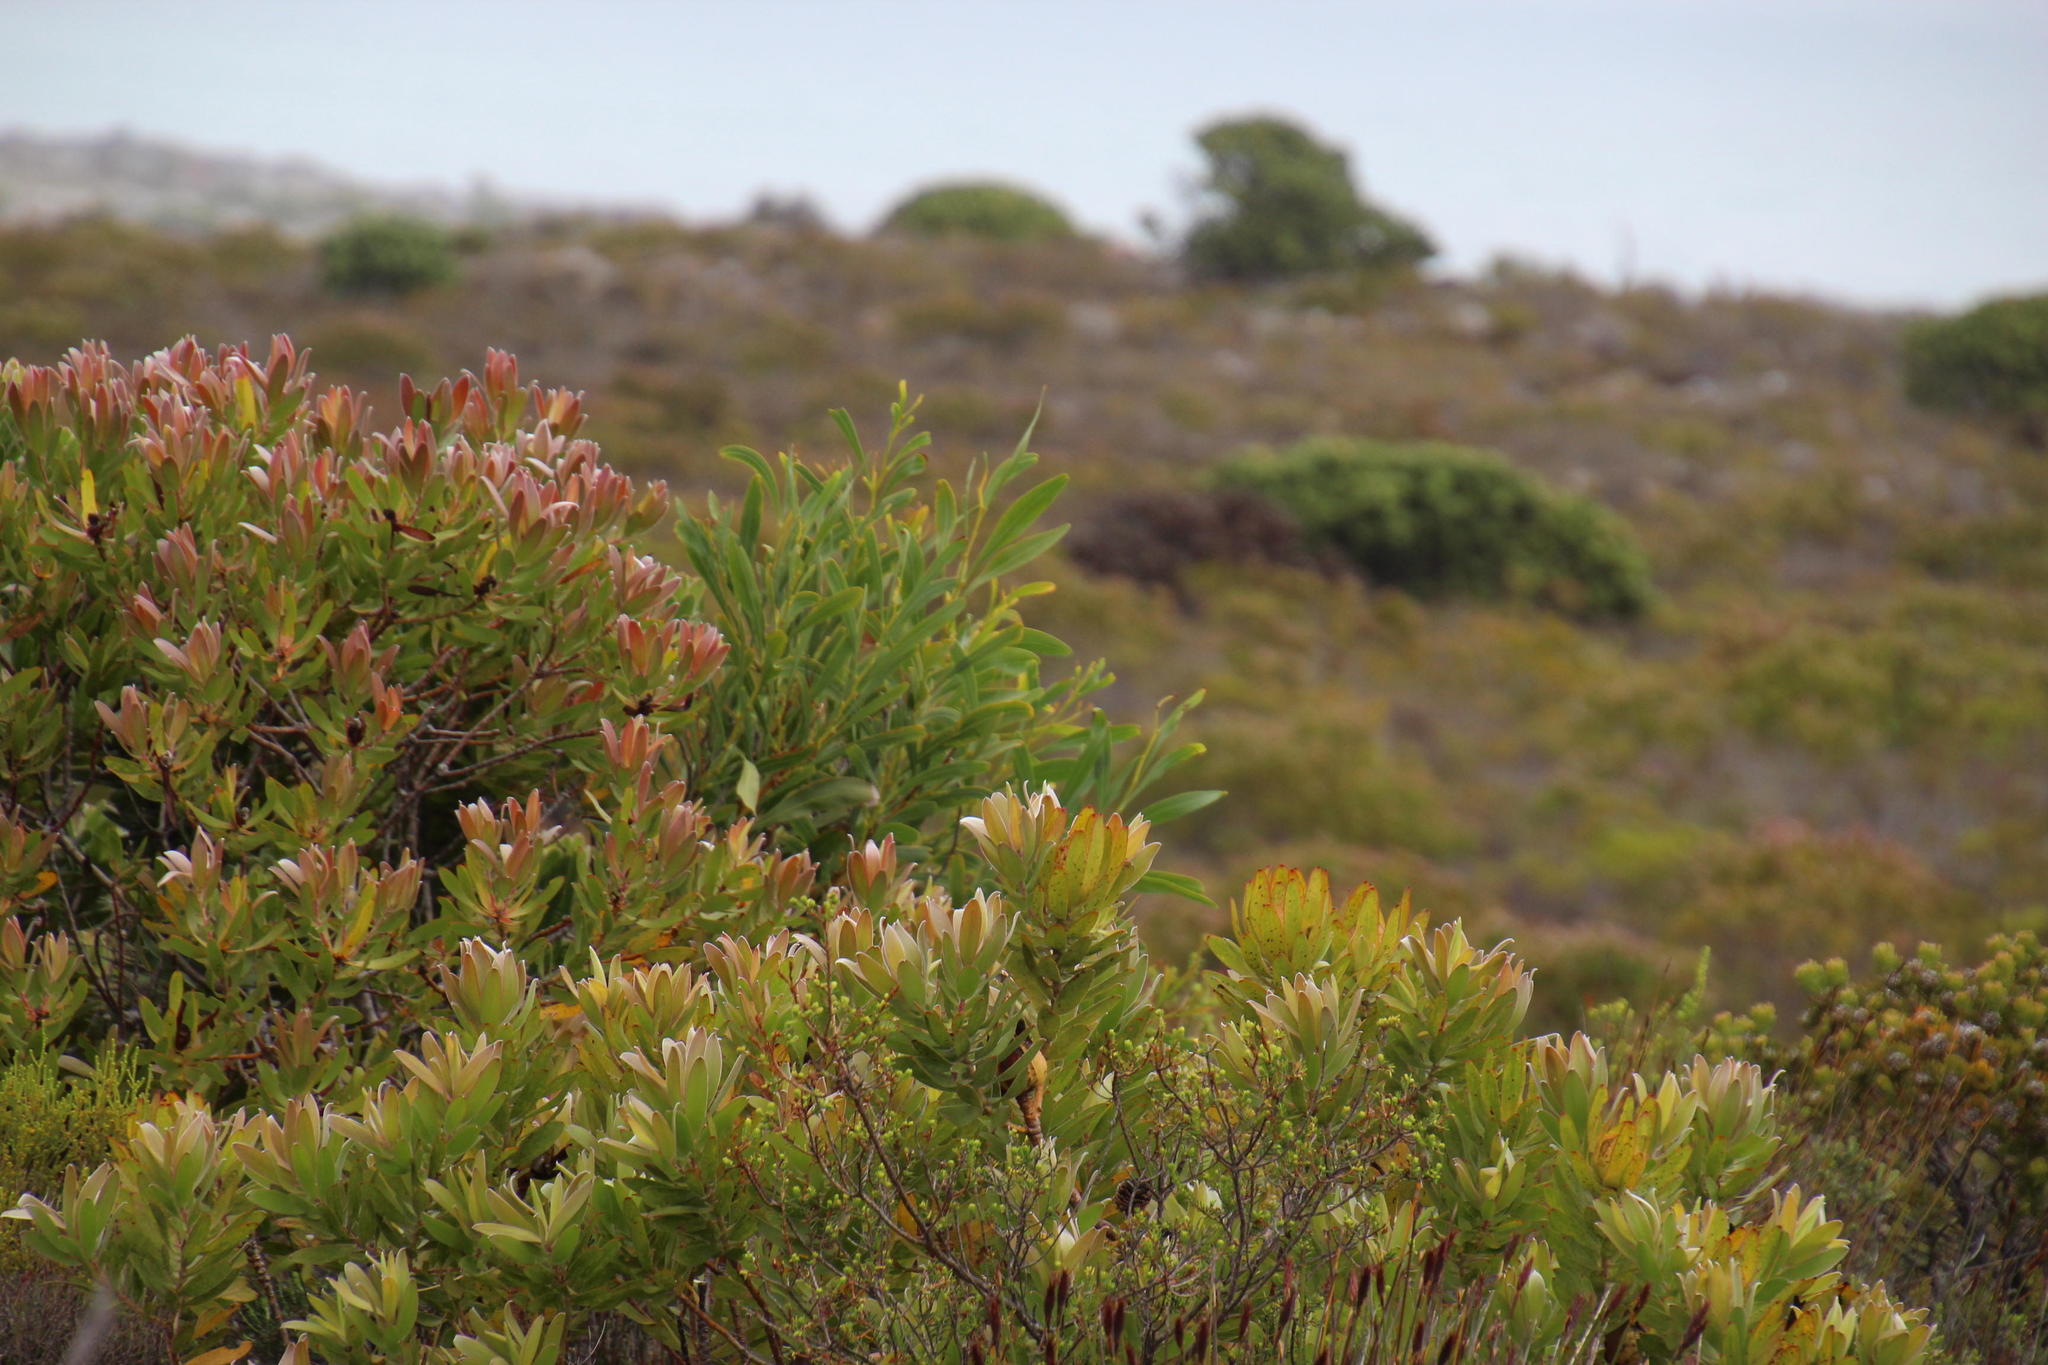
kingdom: Plantae
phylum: Tracheophyta
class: Magnoliopsida
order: Proteales
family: Proteaceae
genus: Leucadendron
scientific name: Leucadendron laureolum
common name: Golden sunshinebush
